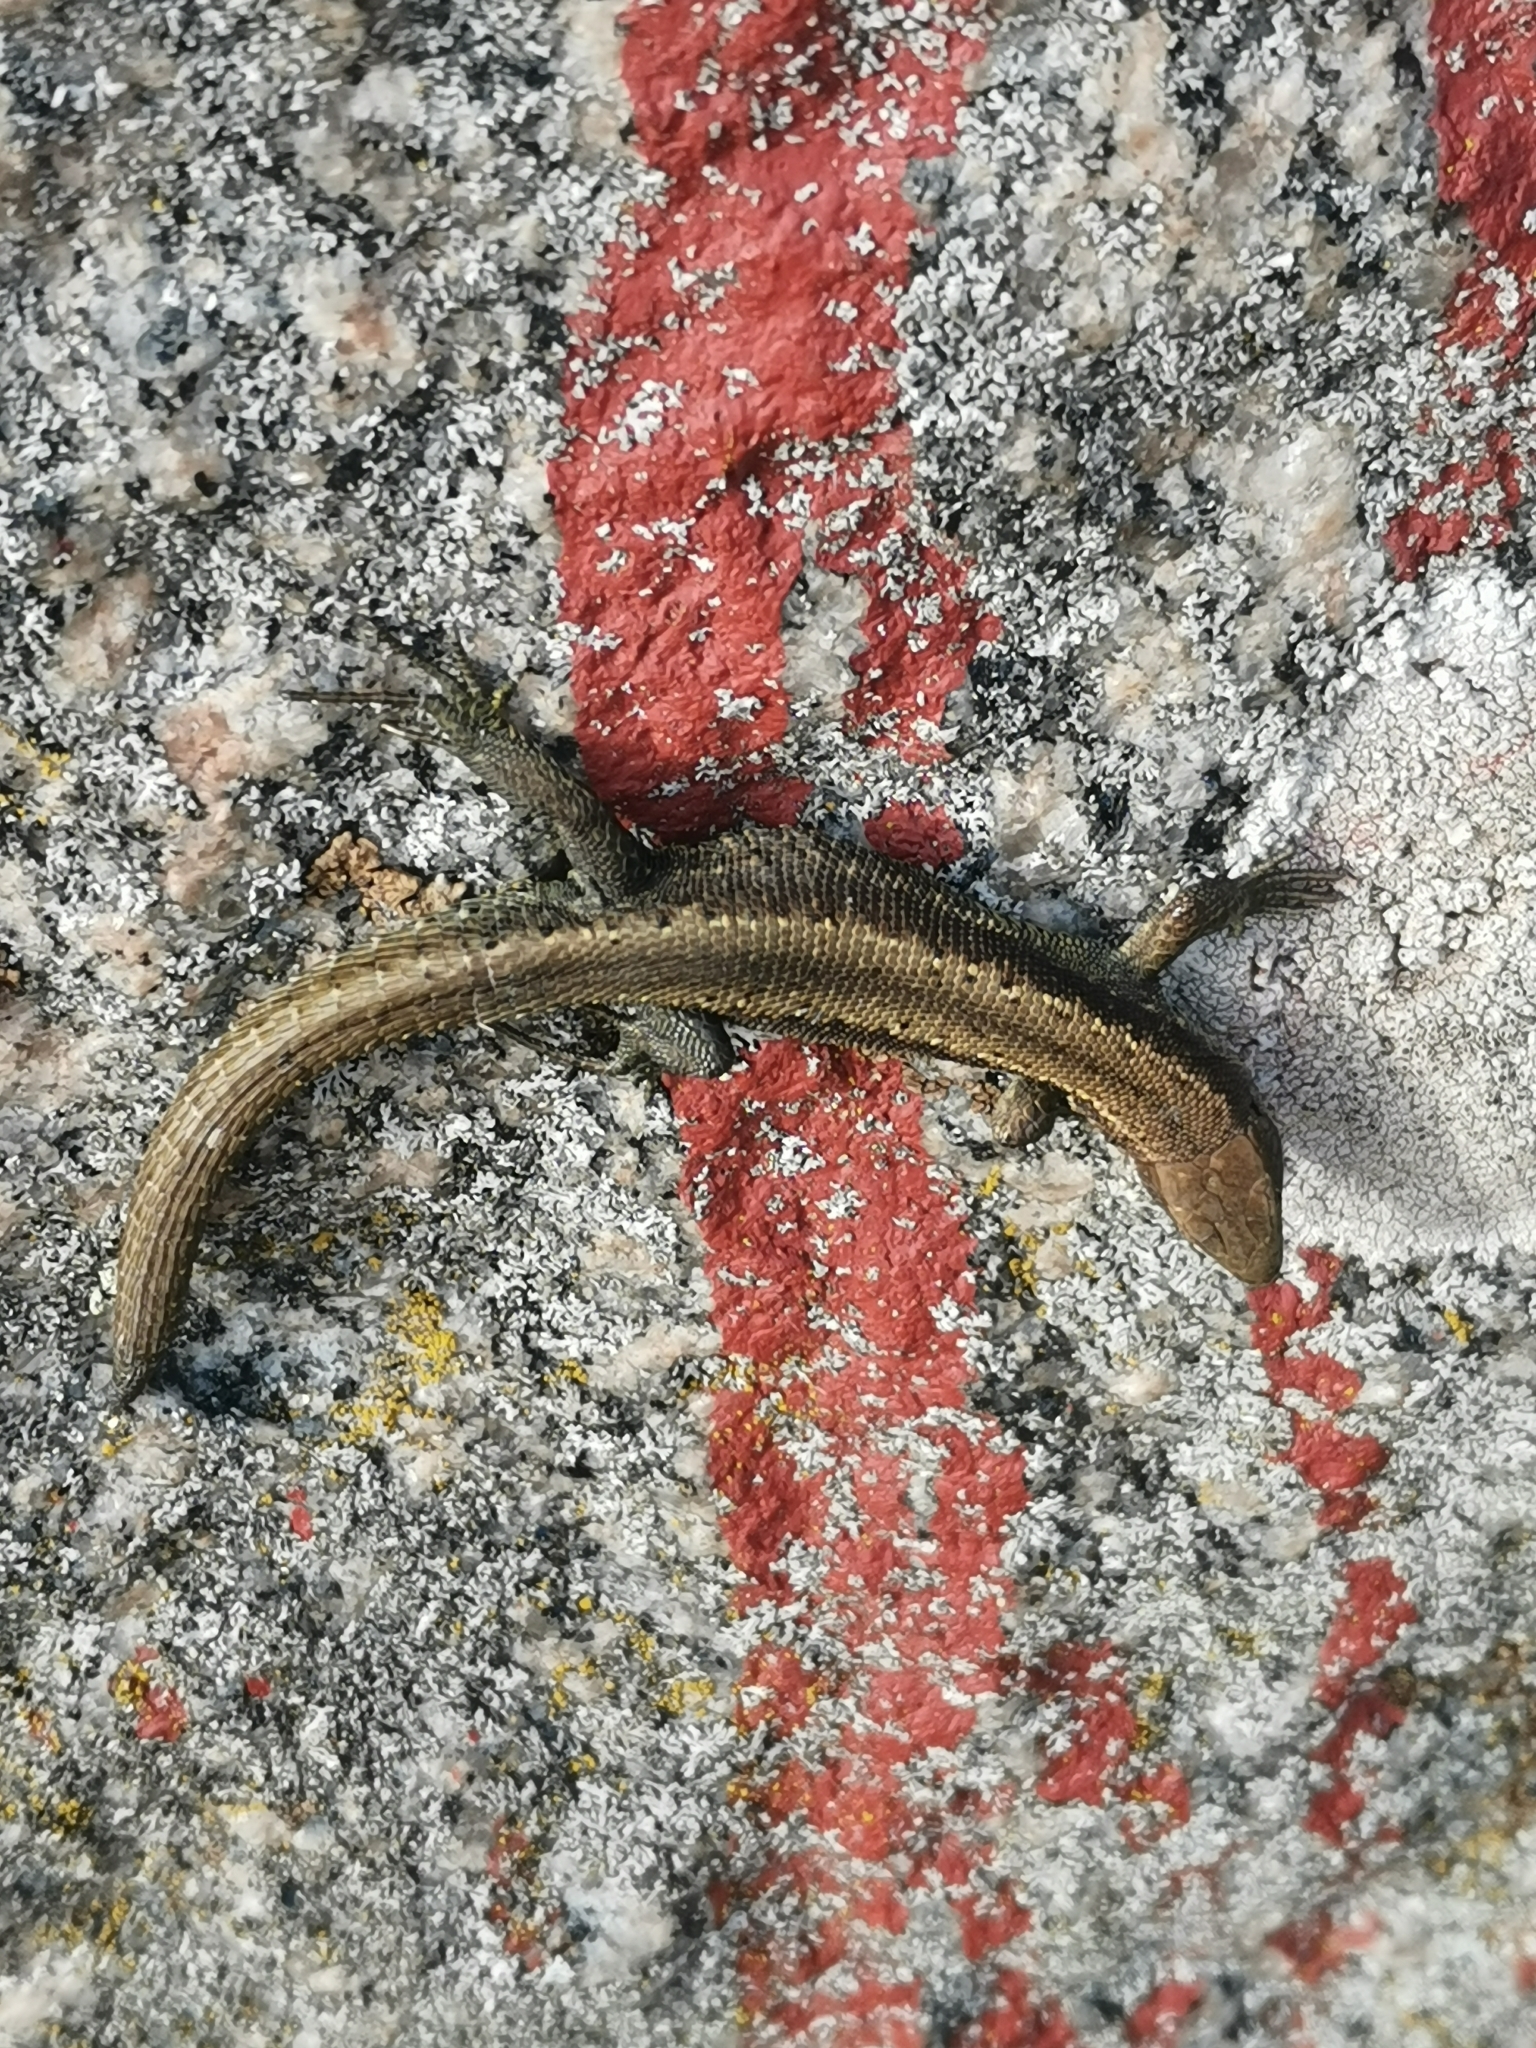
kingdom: Animalia
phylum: Chordata
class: Squamata
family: Lacertidae
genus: Zootoca
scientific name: Zootoca vivipara
